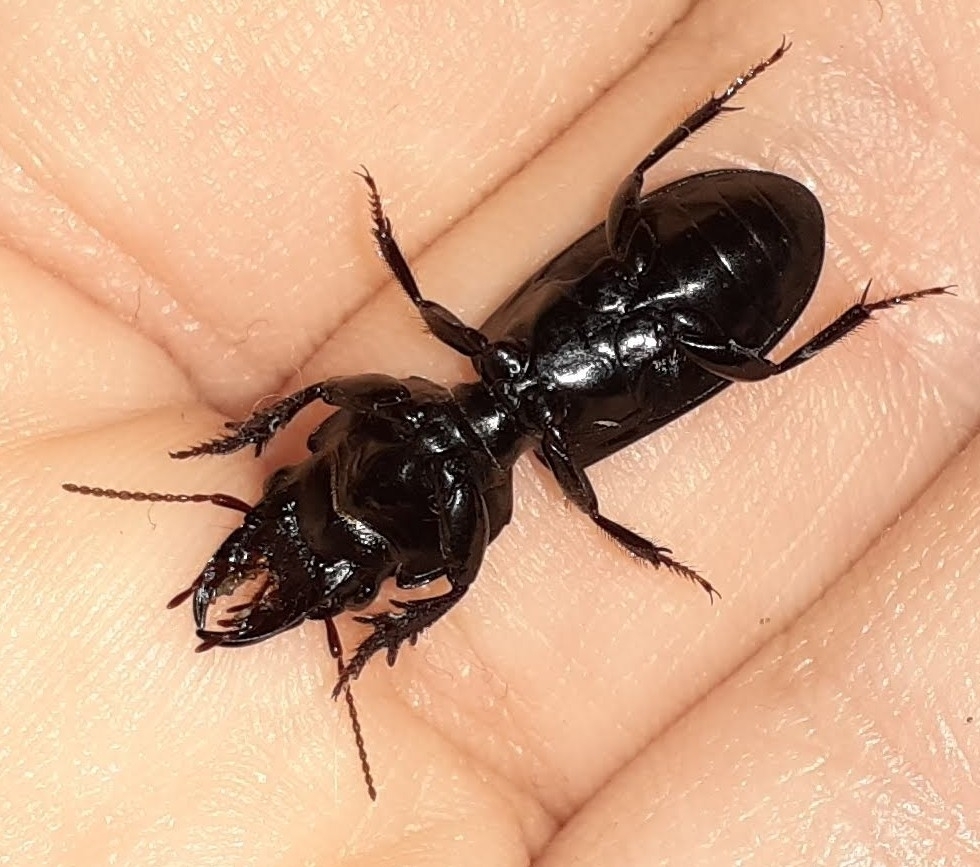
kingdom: Animalia
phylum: Arthropoda
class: Insecta
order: Coleoptera
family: Carabidae
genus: Scarites
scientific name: Scarites subterraneus
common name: Big-headed ground beetle
